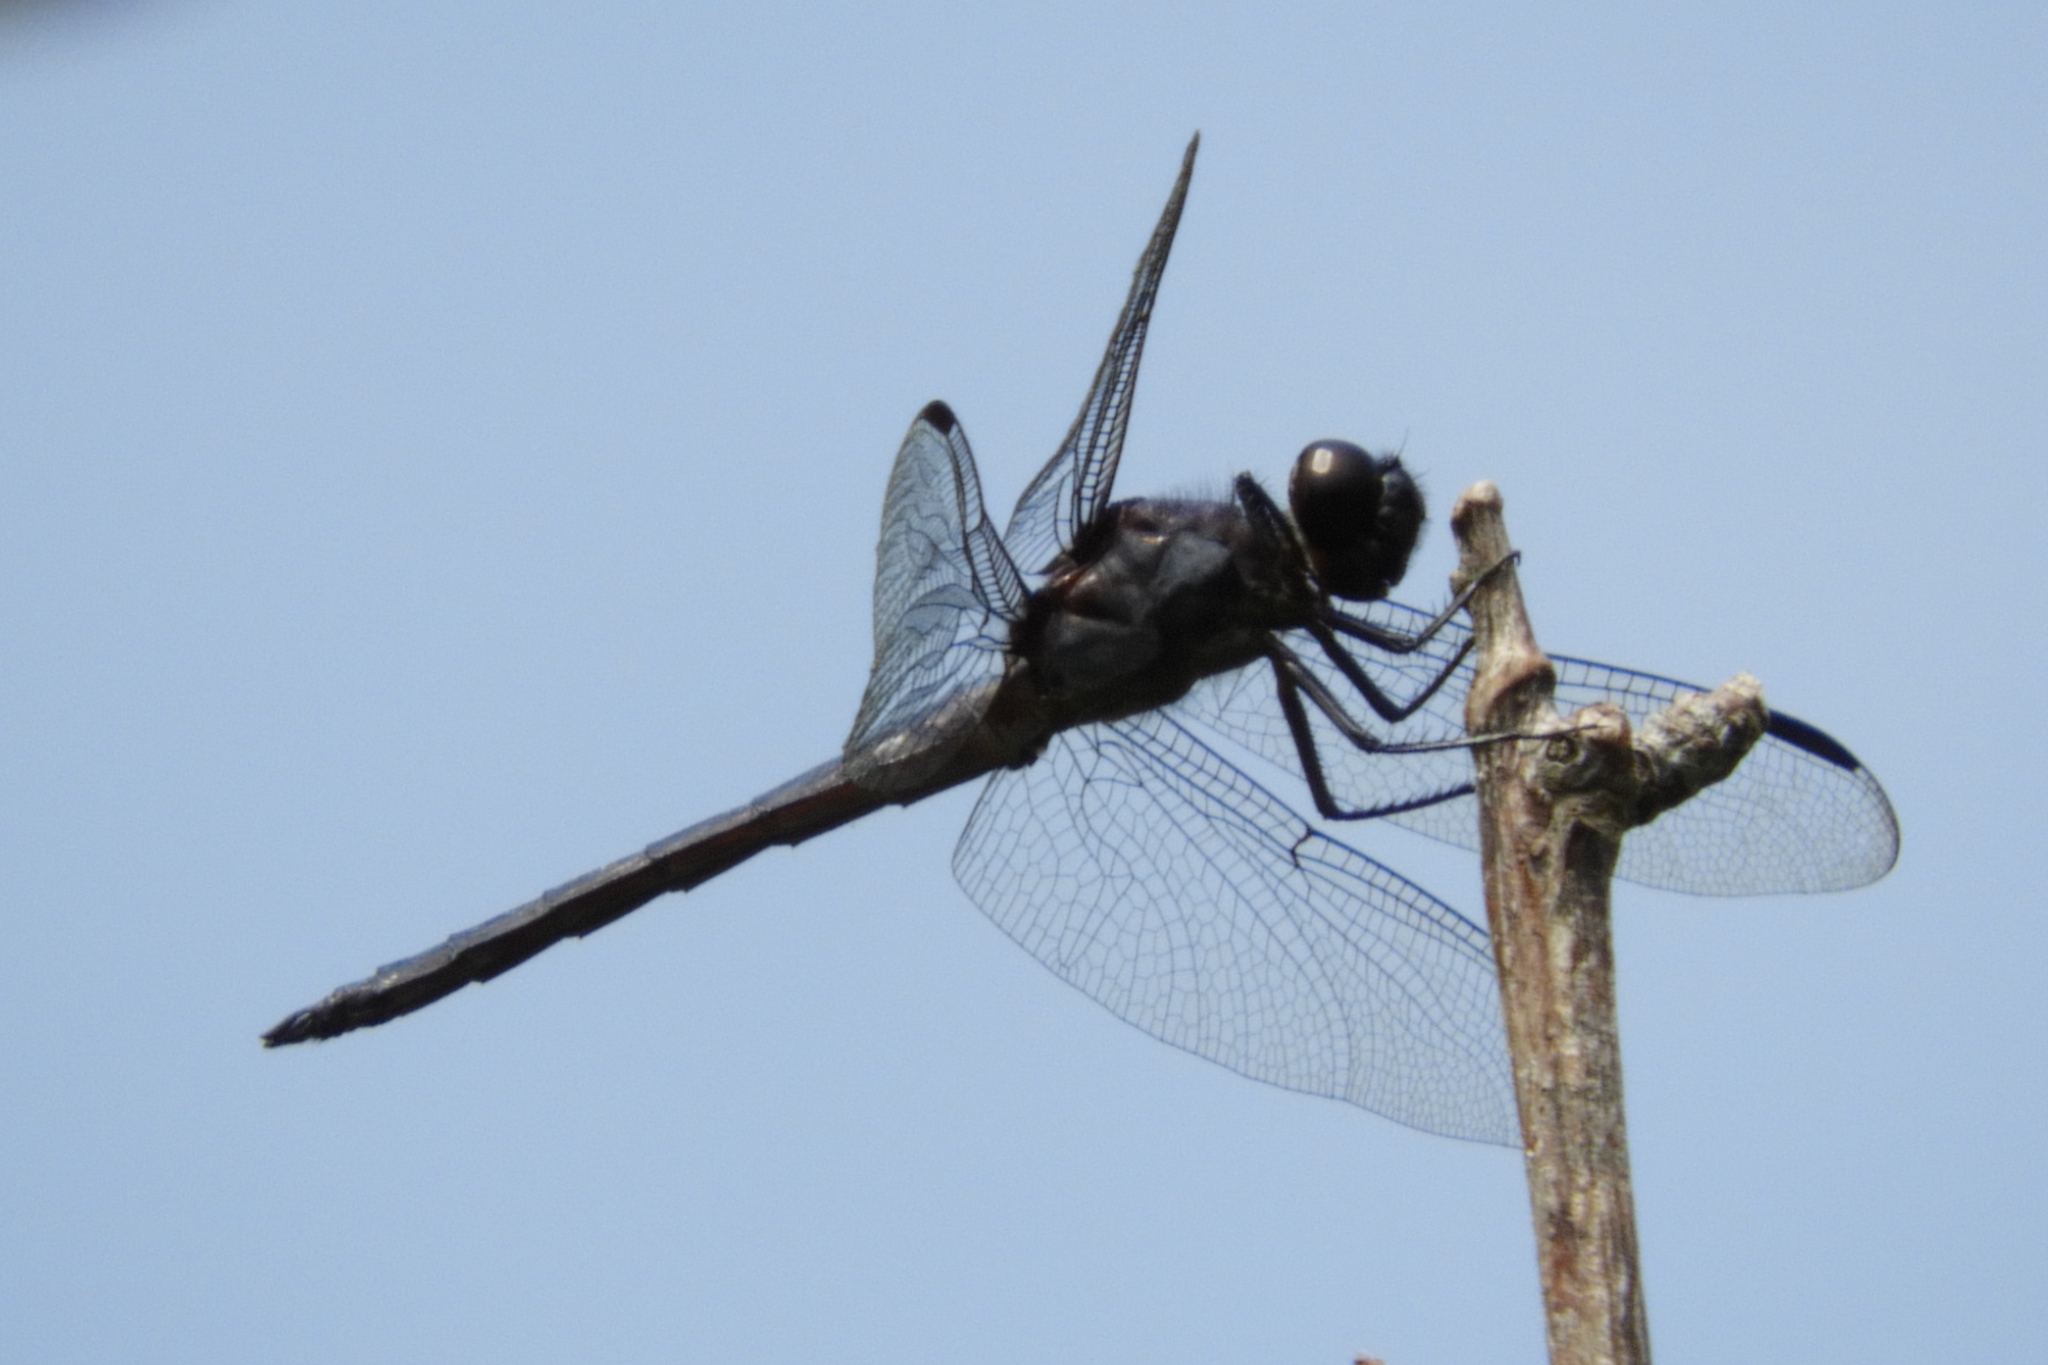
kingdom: Animalia
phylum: Arthropoda
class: Insecta
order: Odonata
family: Libellulidae
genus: Libellula
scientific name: Libellula incesta
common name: Slaty skimmer
